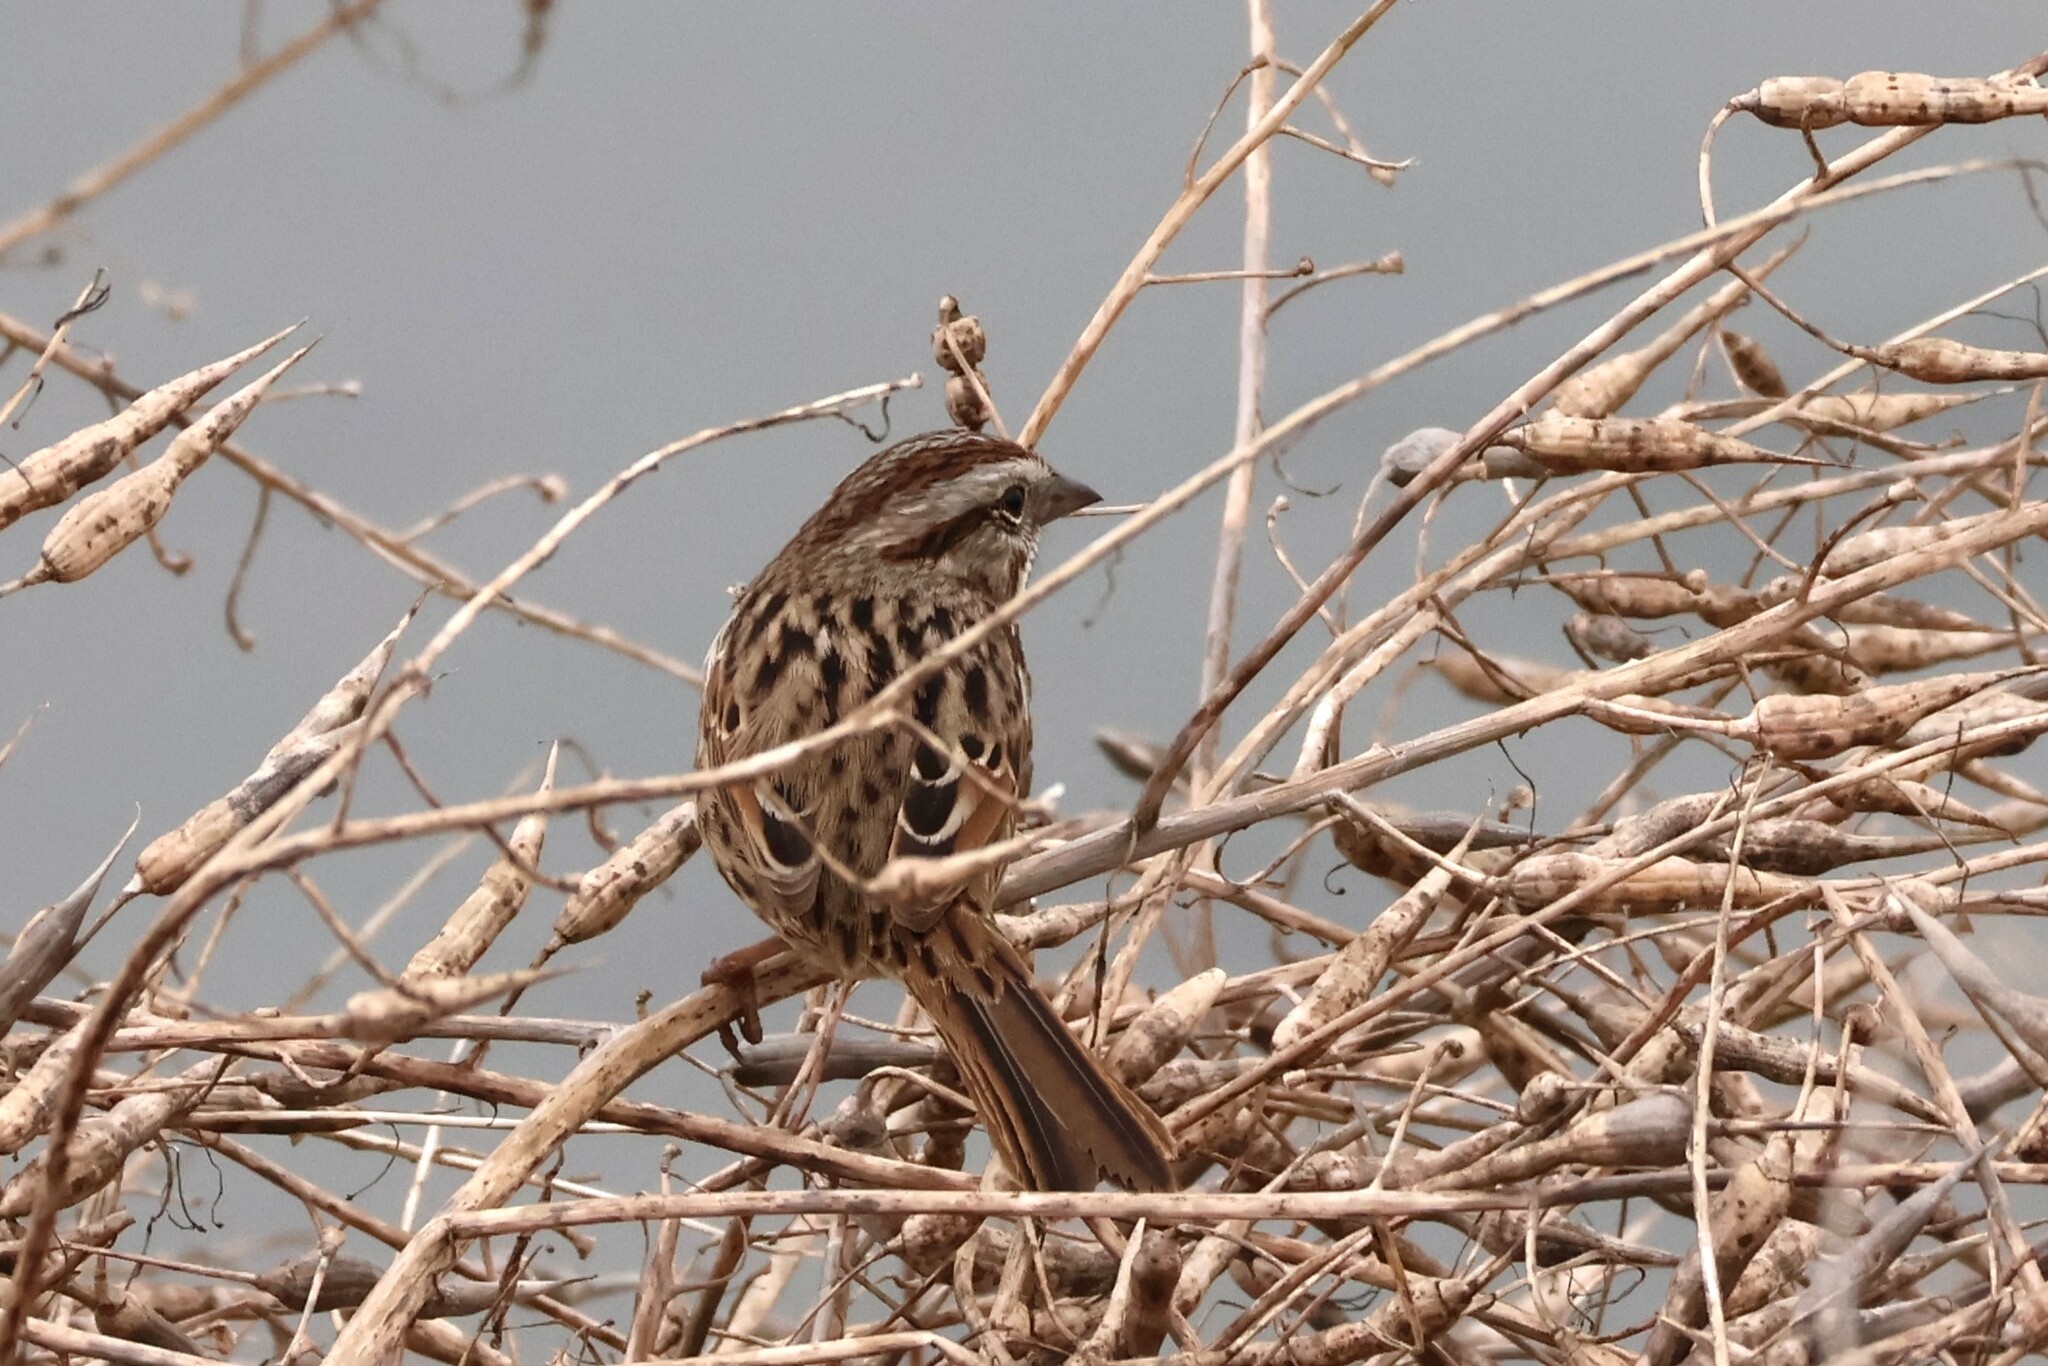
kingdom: Animalia
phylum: Chordata
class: Aves
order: Passeriformes
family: Passerellidae
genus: Melospiza
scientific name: Melospiza melodia
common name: Song sparrow
